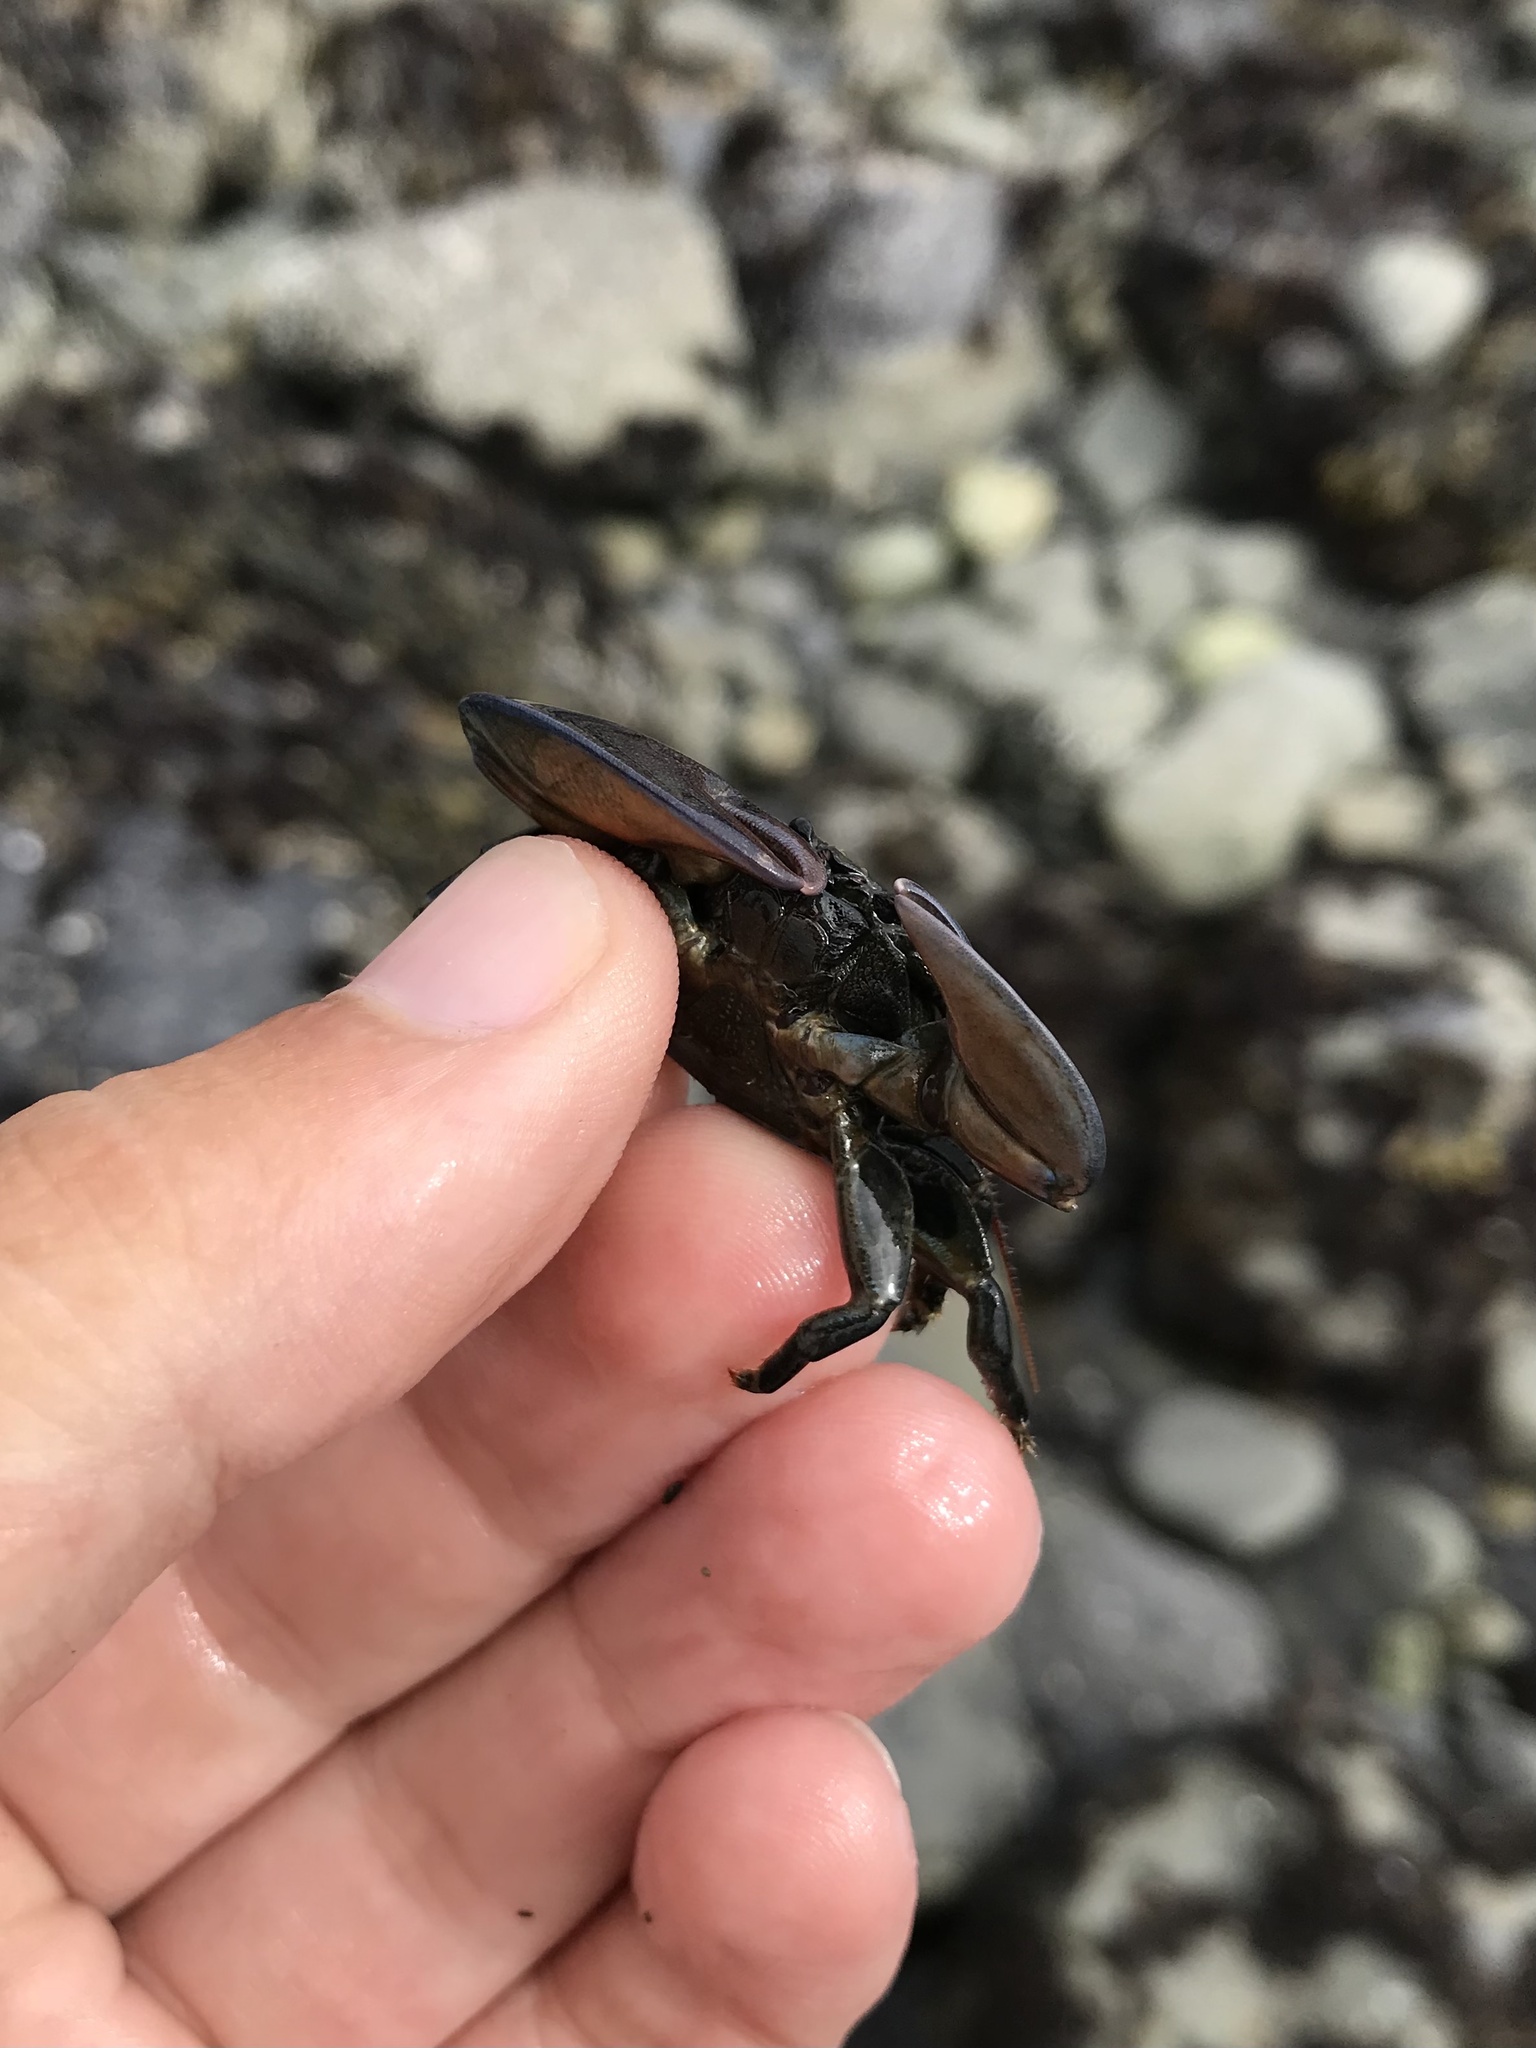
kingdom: Animalia
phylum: Arthropoda
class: Malacostraca
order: Decapoda
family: Porcellanidae
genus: Petrolisthes
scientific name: Petrolisthes cinctipes
